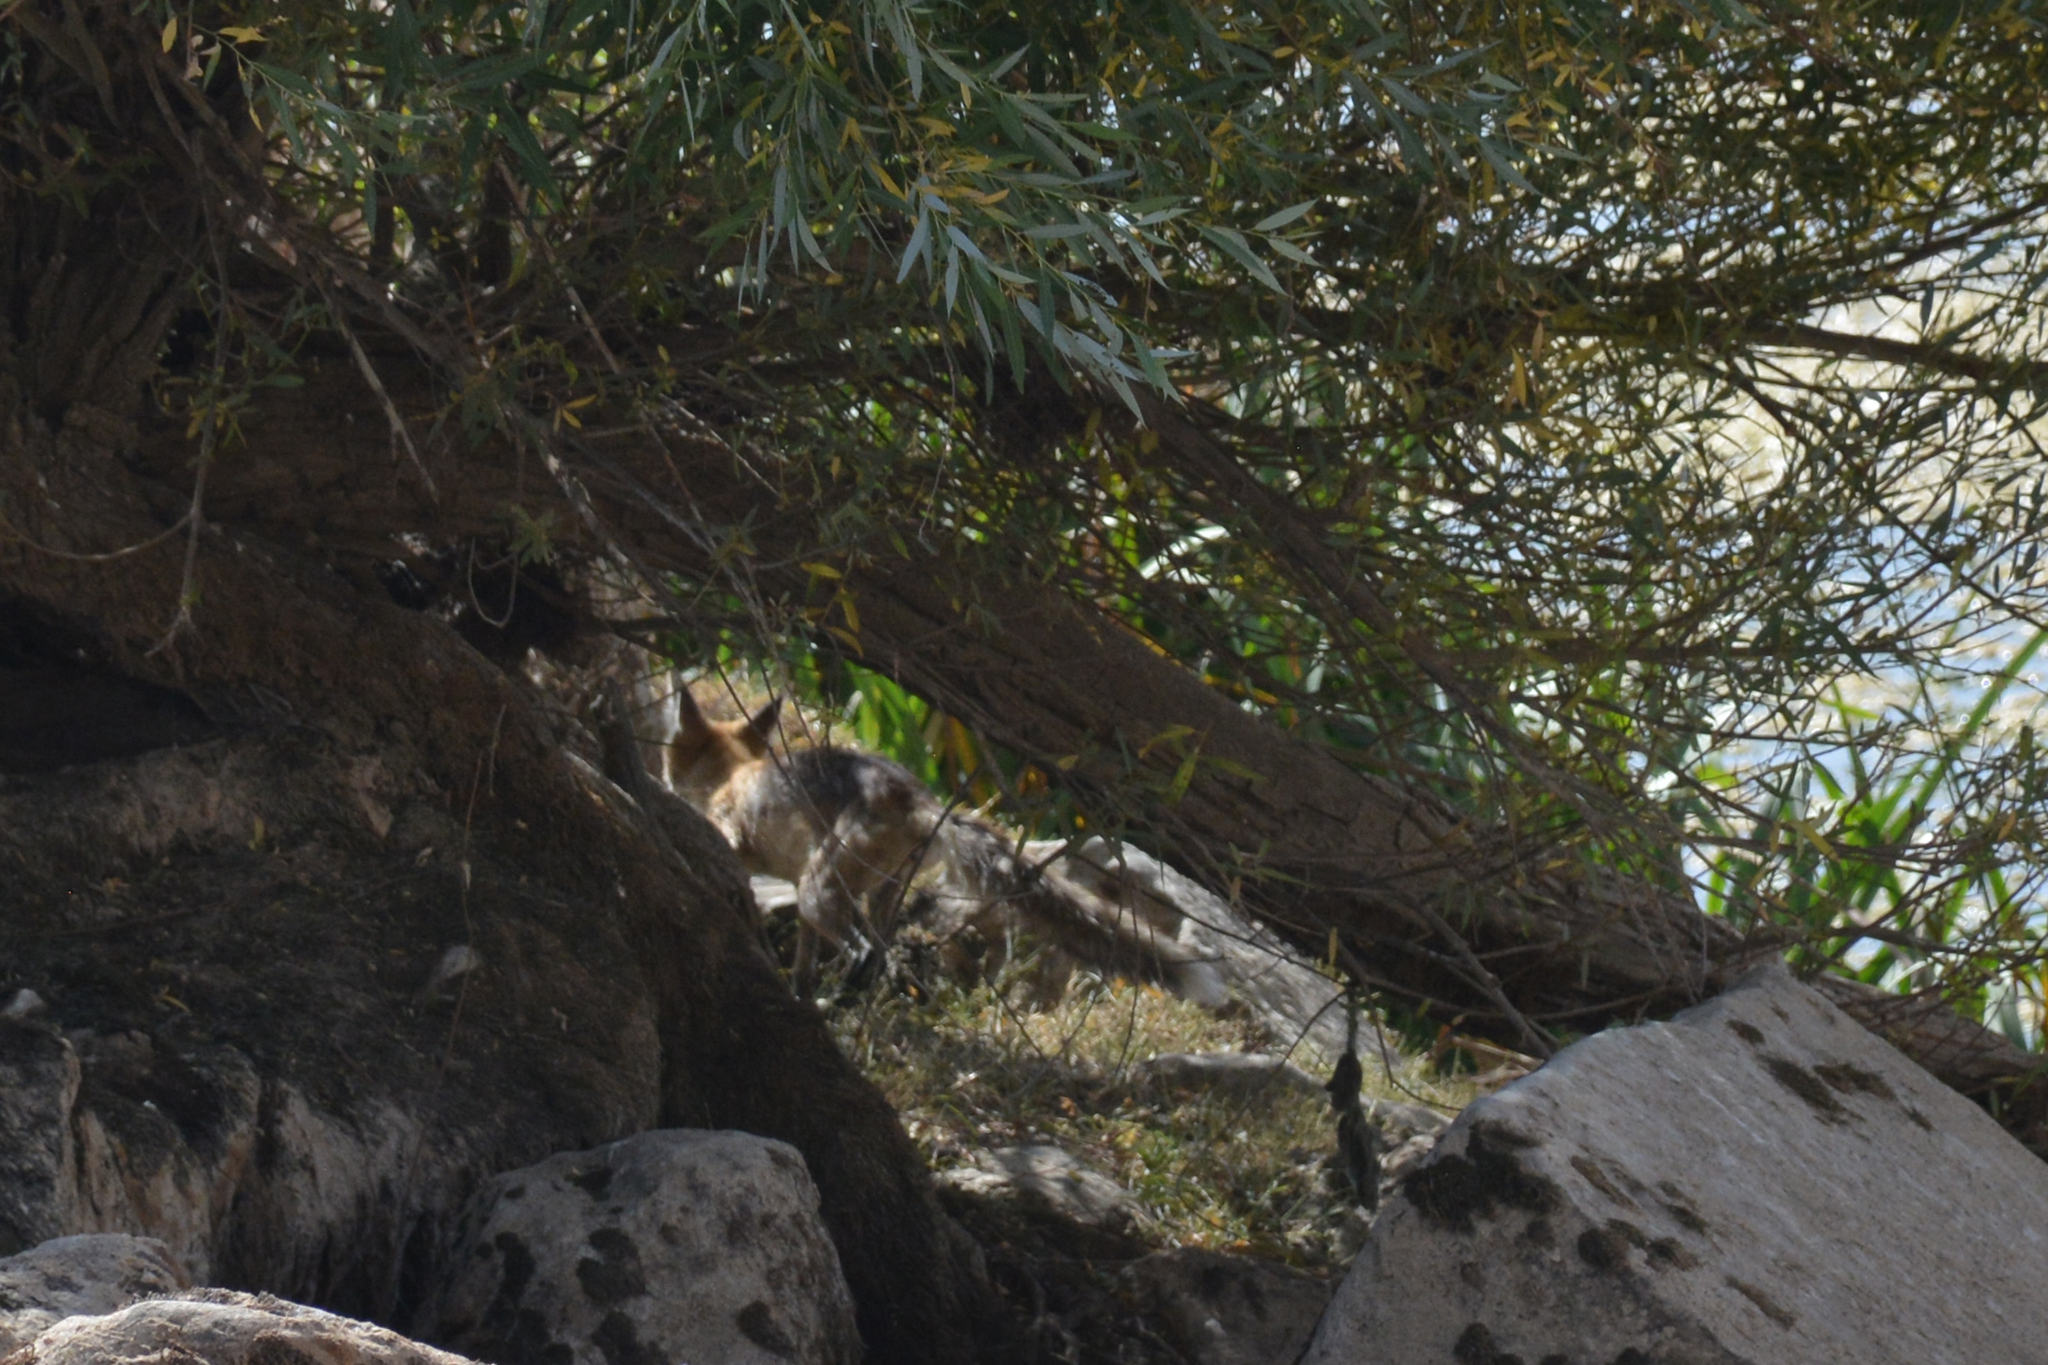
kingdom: Animalia
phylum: Chordata
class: Mammalia
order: Carnivora
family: Canidae
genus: Vulpes
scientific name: Vulpes vulpes
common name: Red fox
